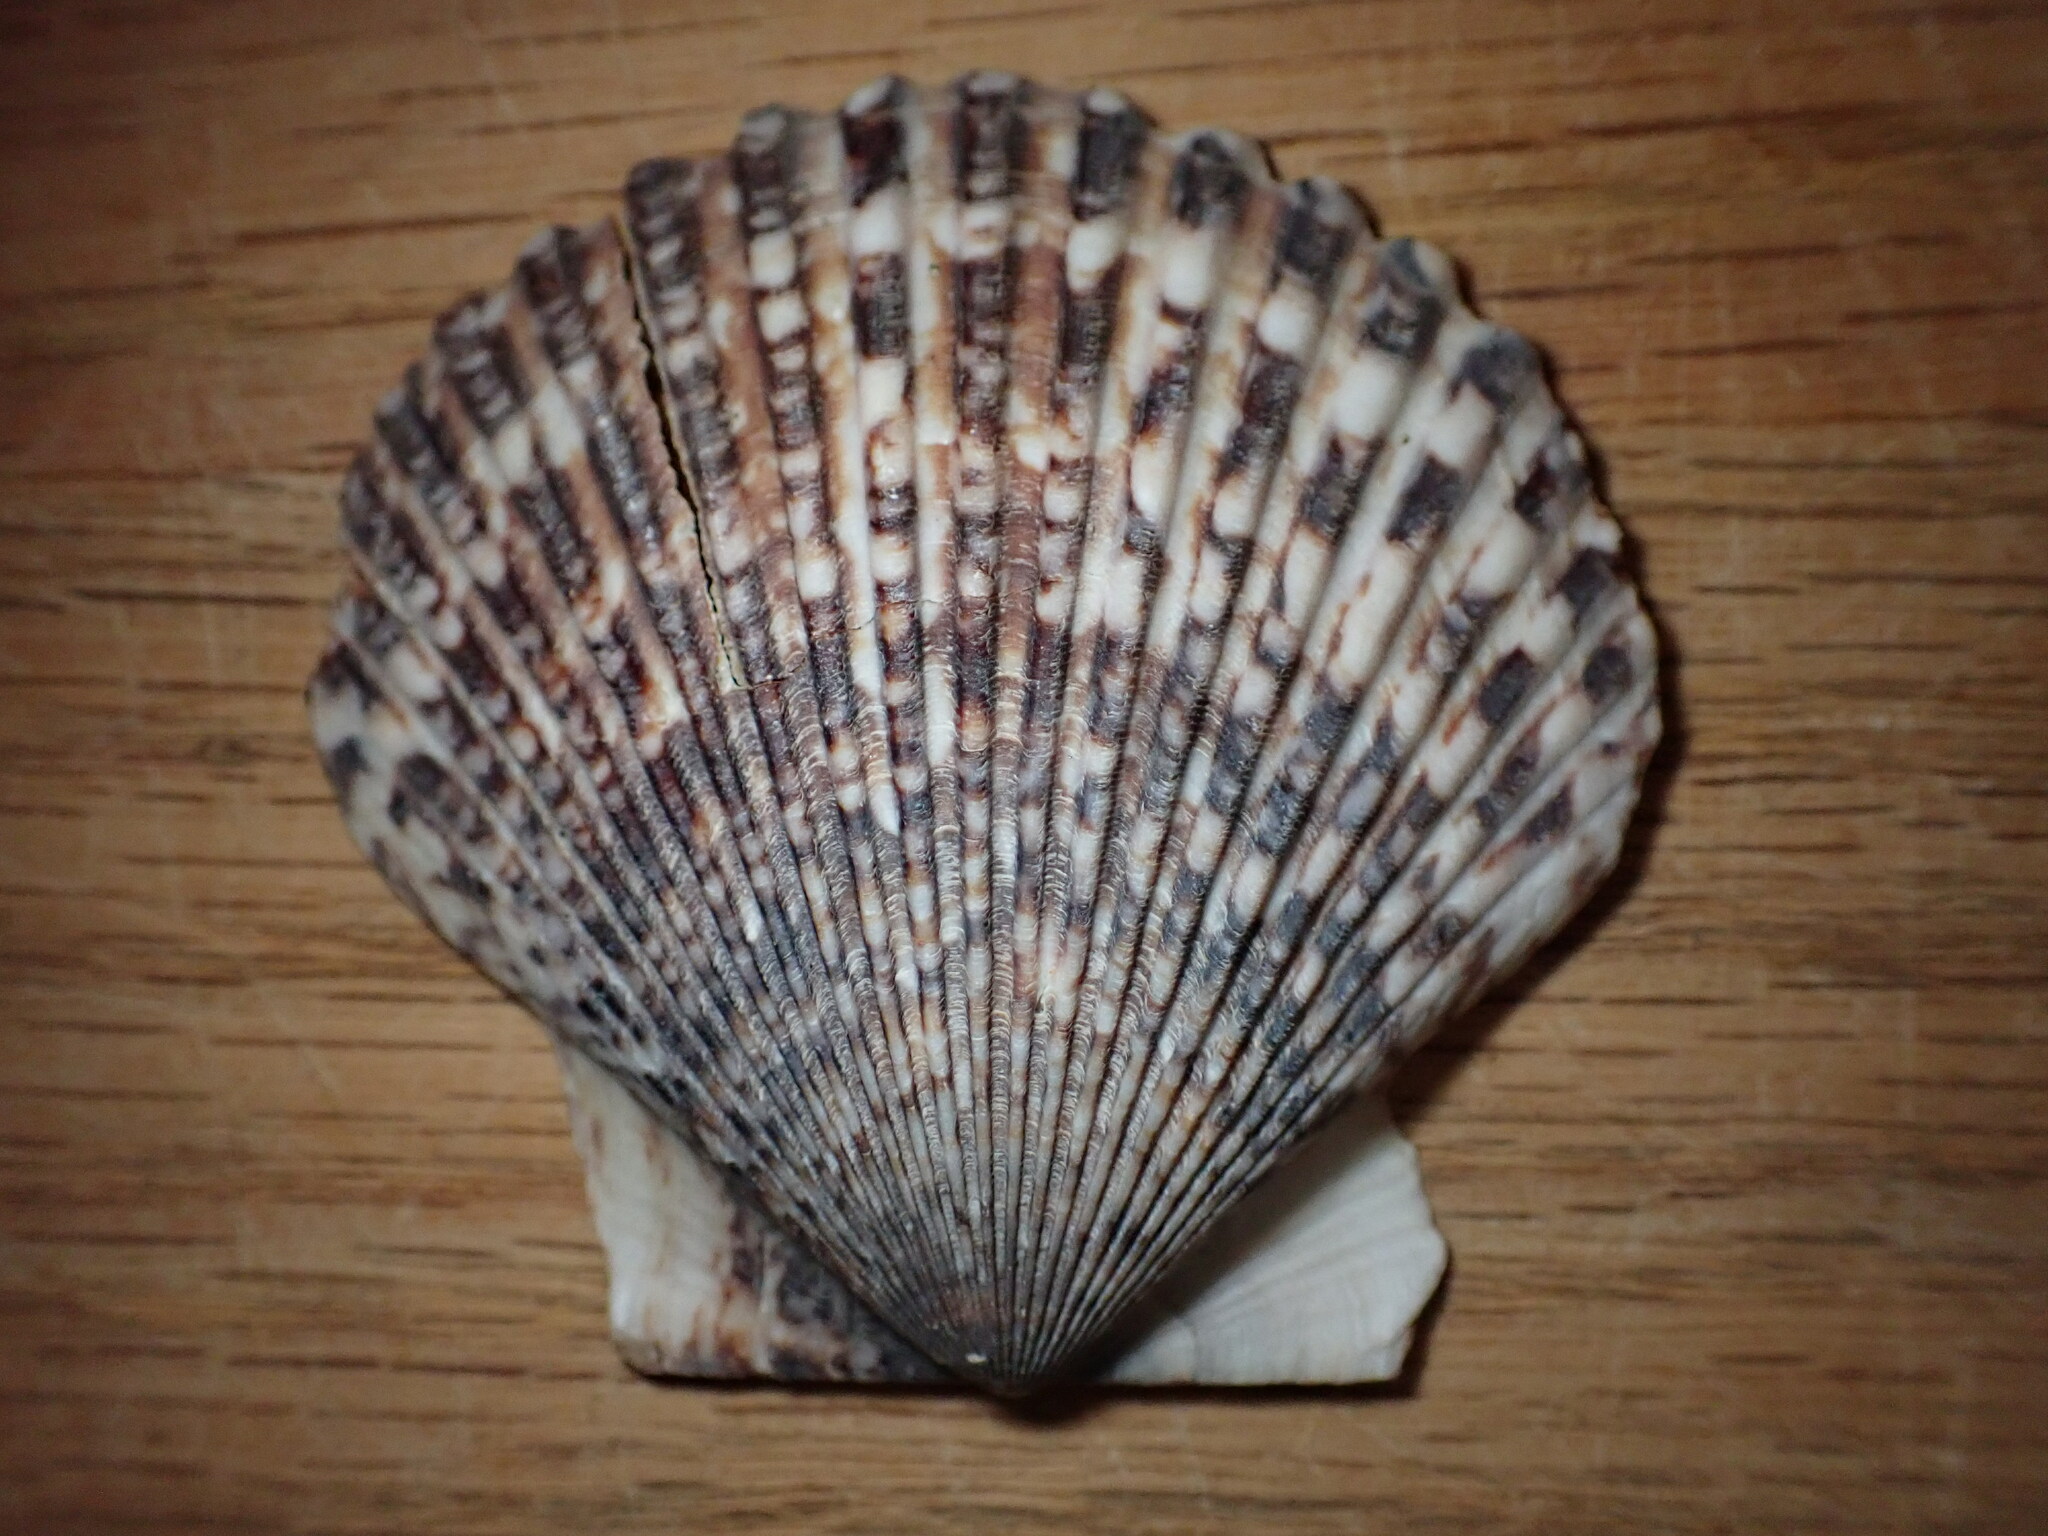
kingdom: Animalia
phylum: Mollusca
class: Bivalvia
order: Pectinida
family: Pectinidae
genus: Argopecten
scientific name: Argopecten ventricosus
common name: Catarina scallop
